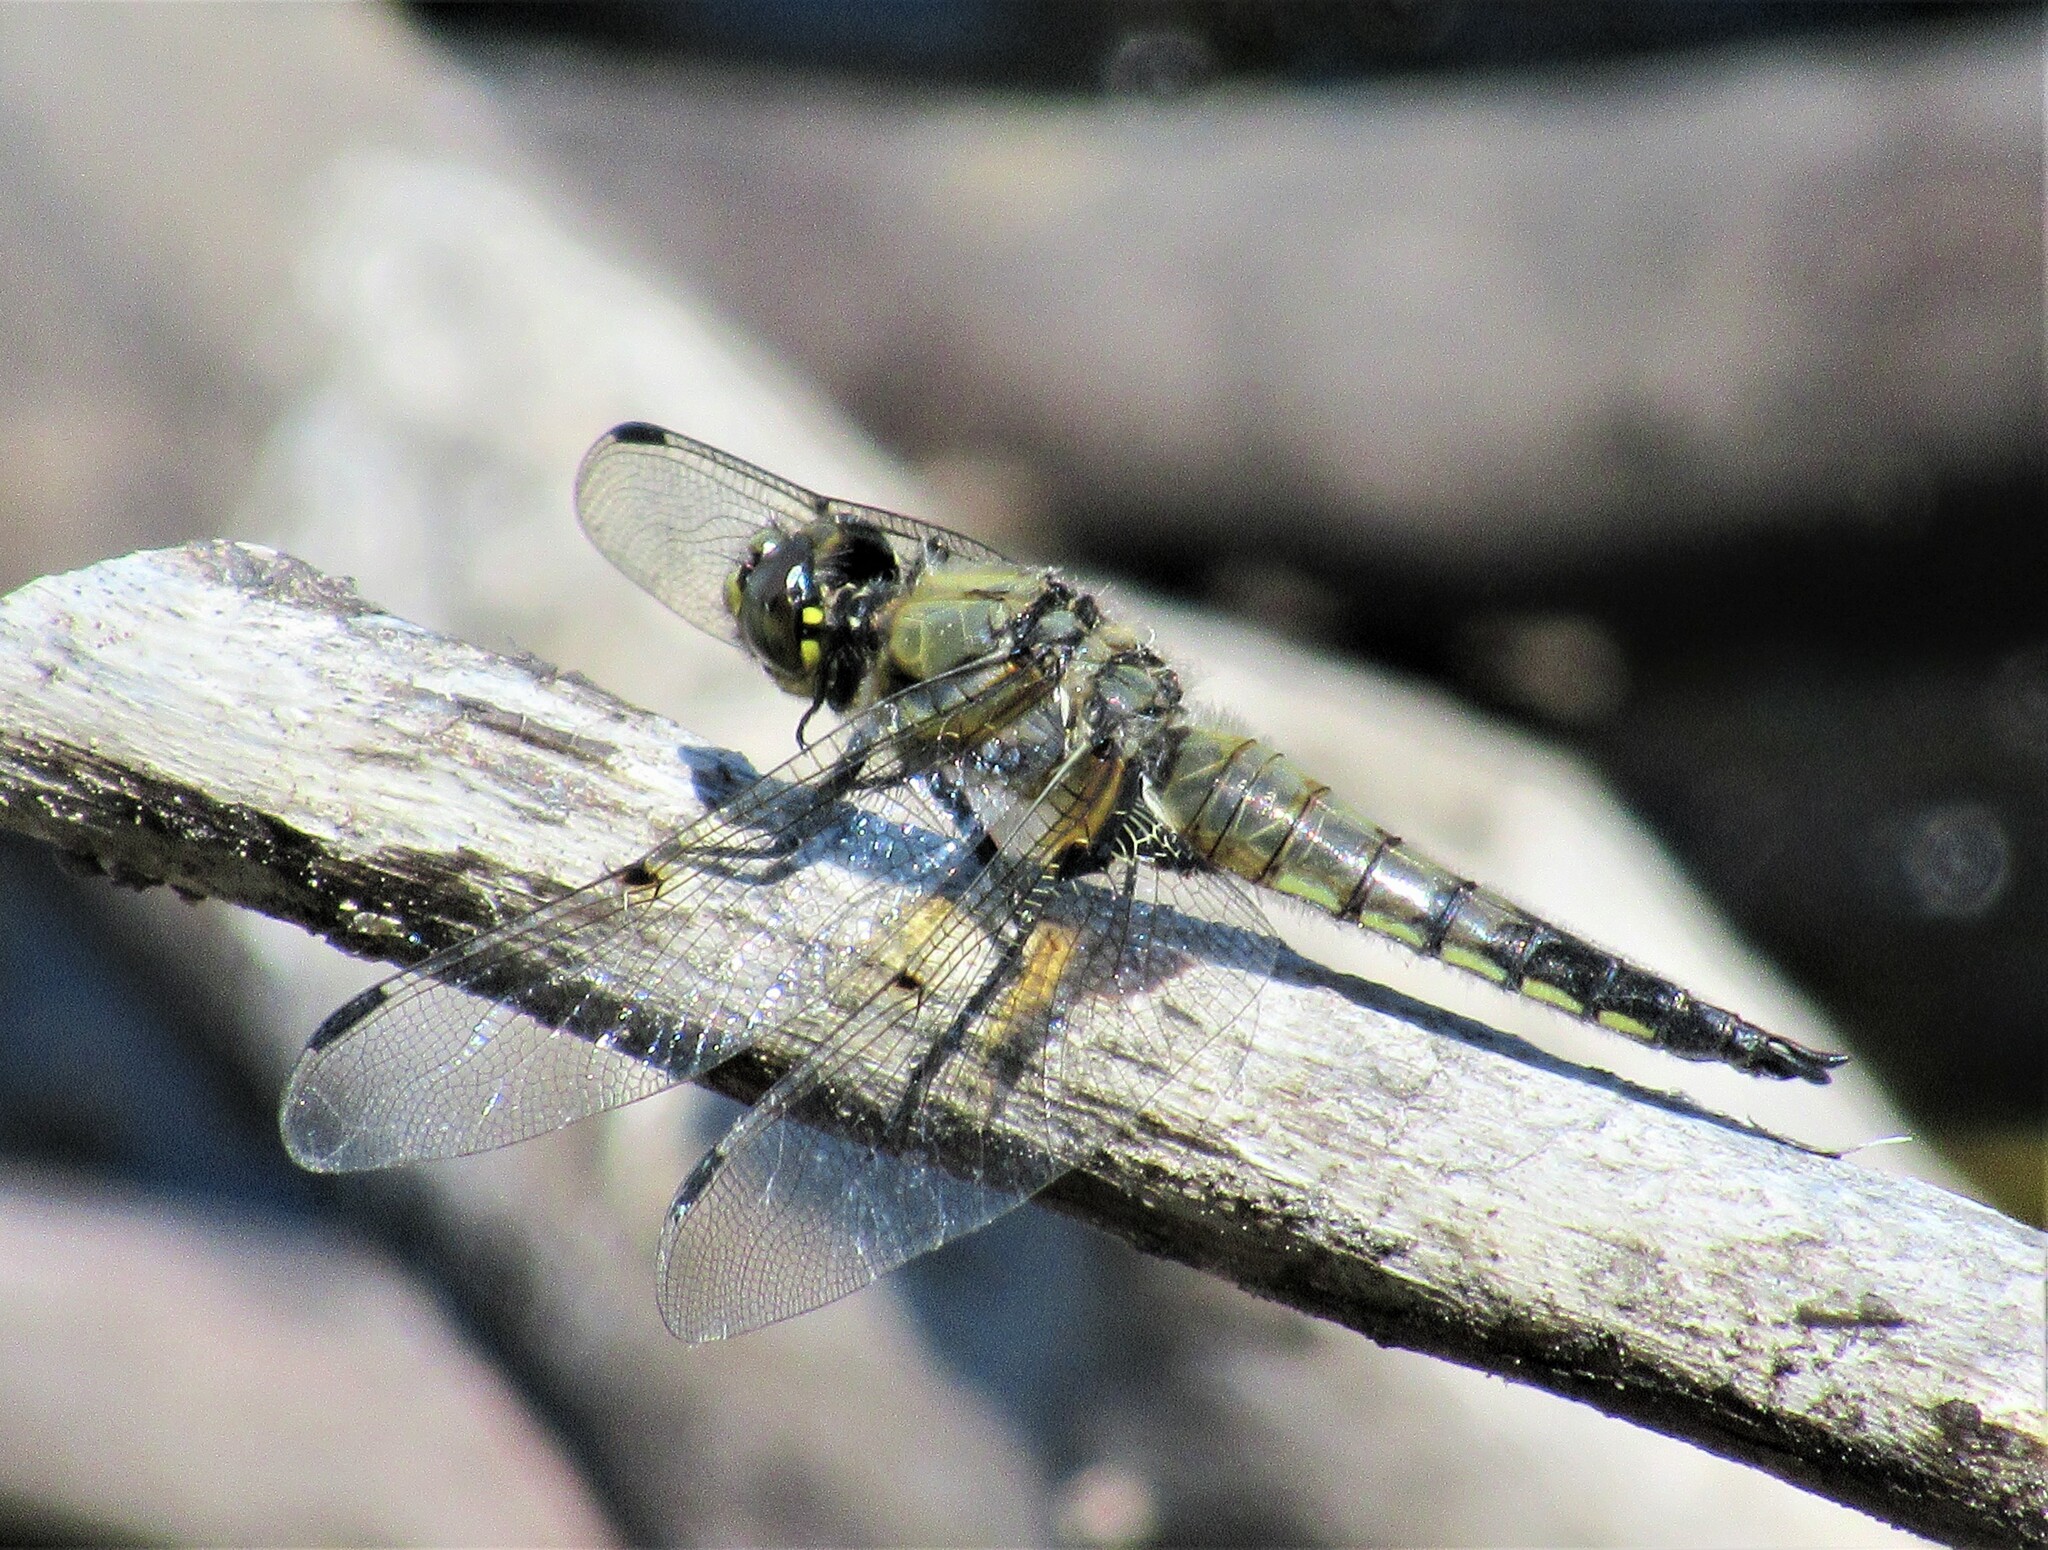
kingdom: Animalia
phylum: Arthropoda
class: Insecta
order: Odonata
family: Libellulidae
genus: Libellula
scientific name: Libellula quadrimaculata
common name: Four-spotted chaser
